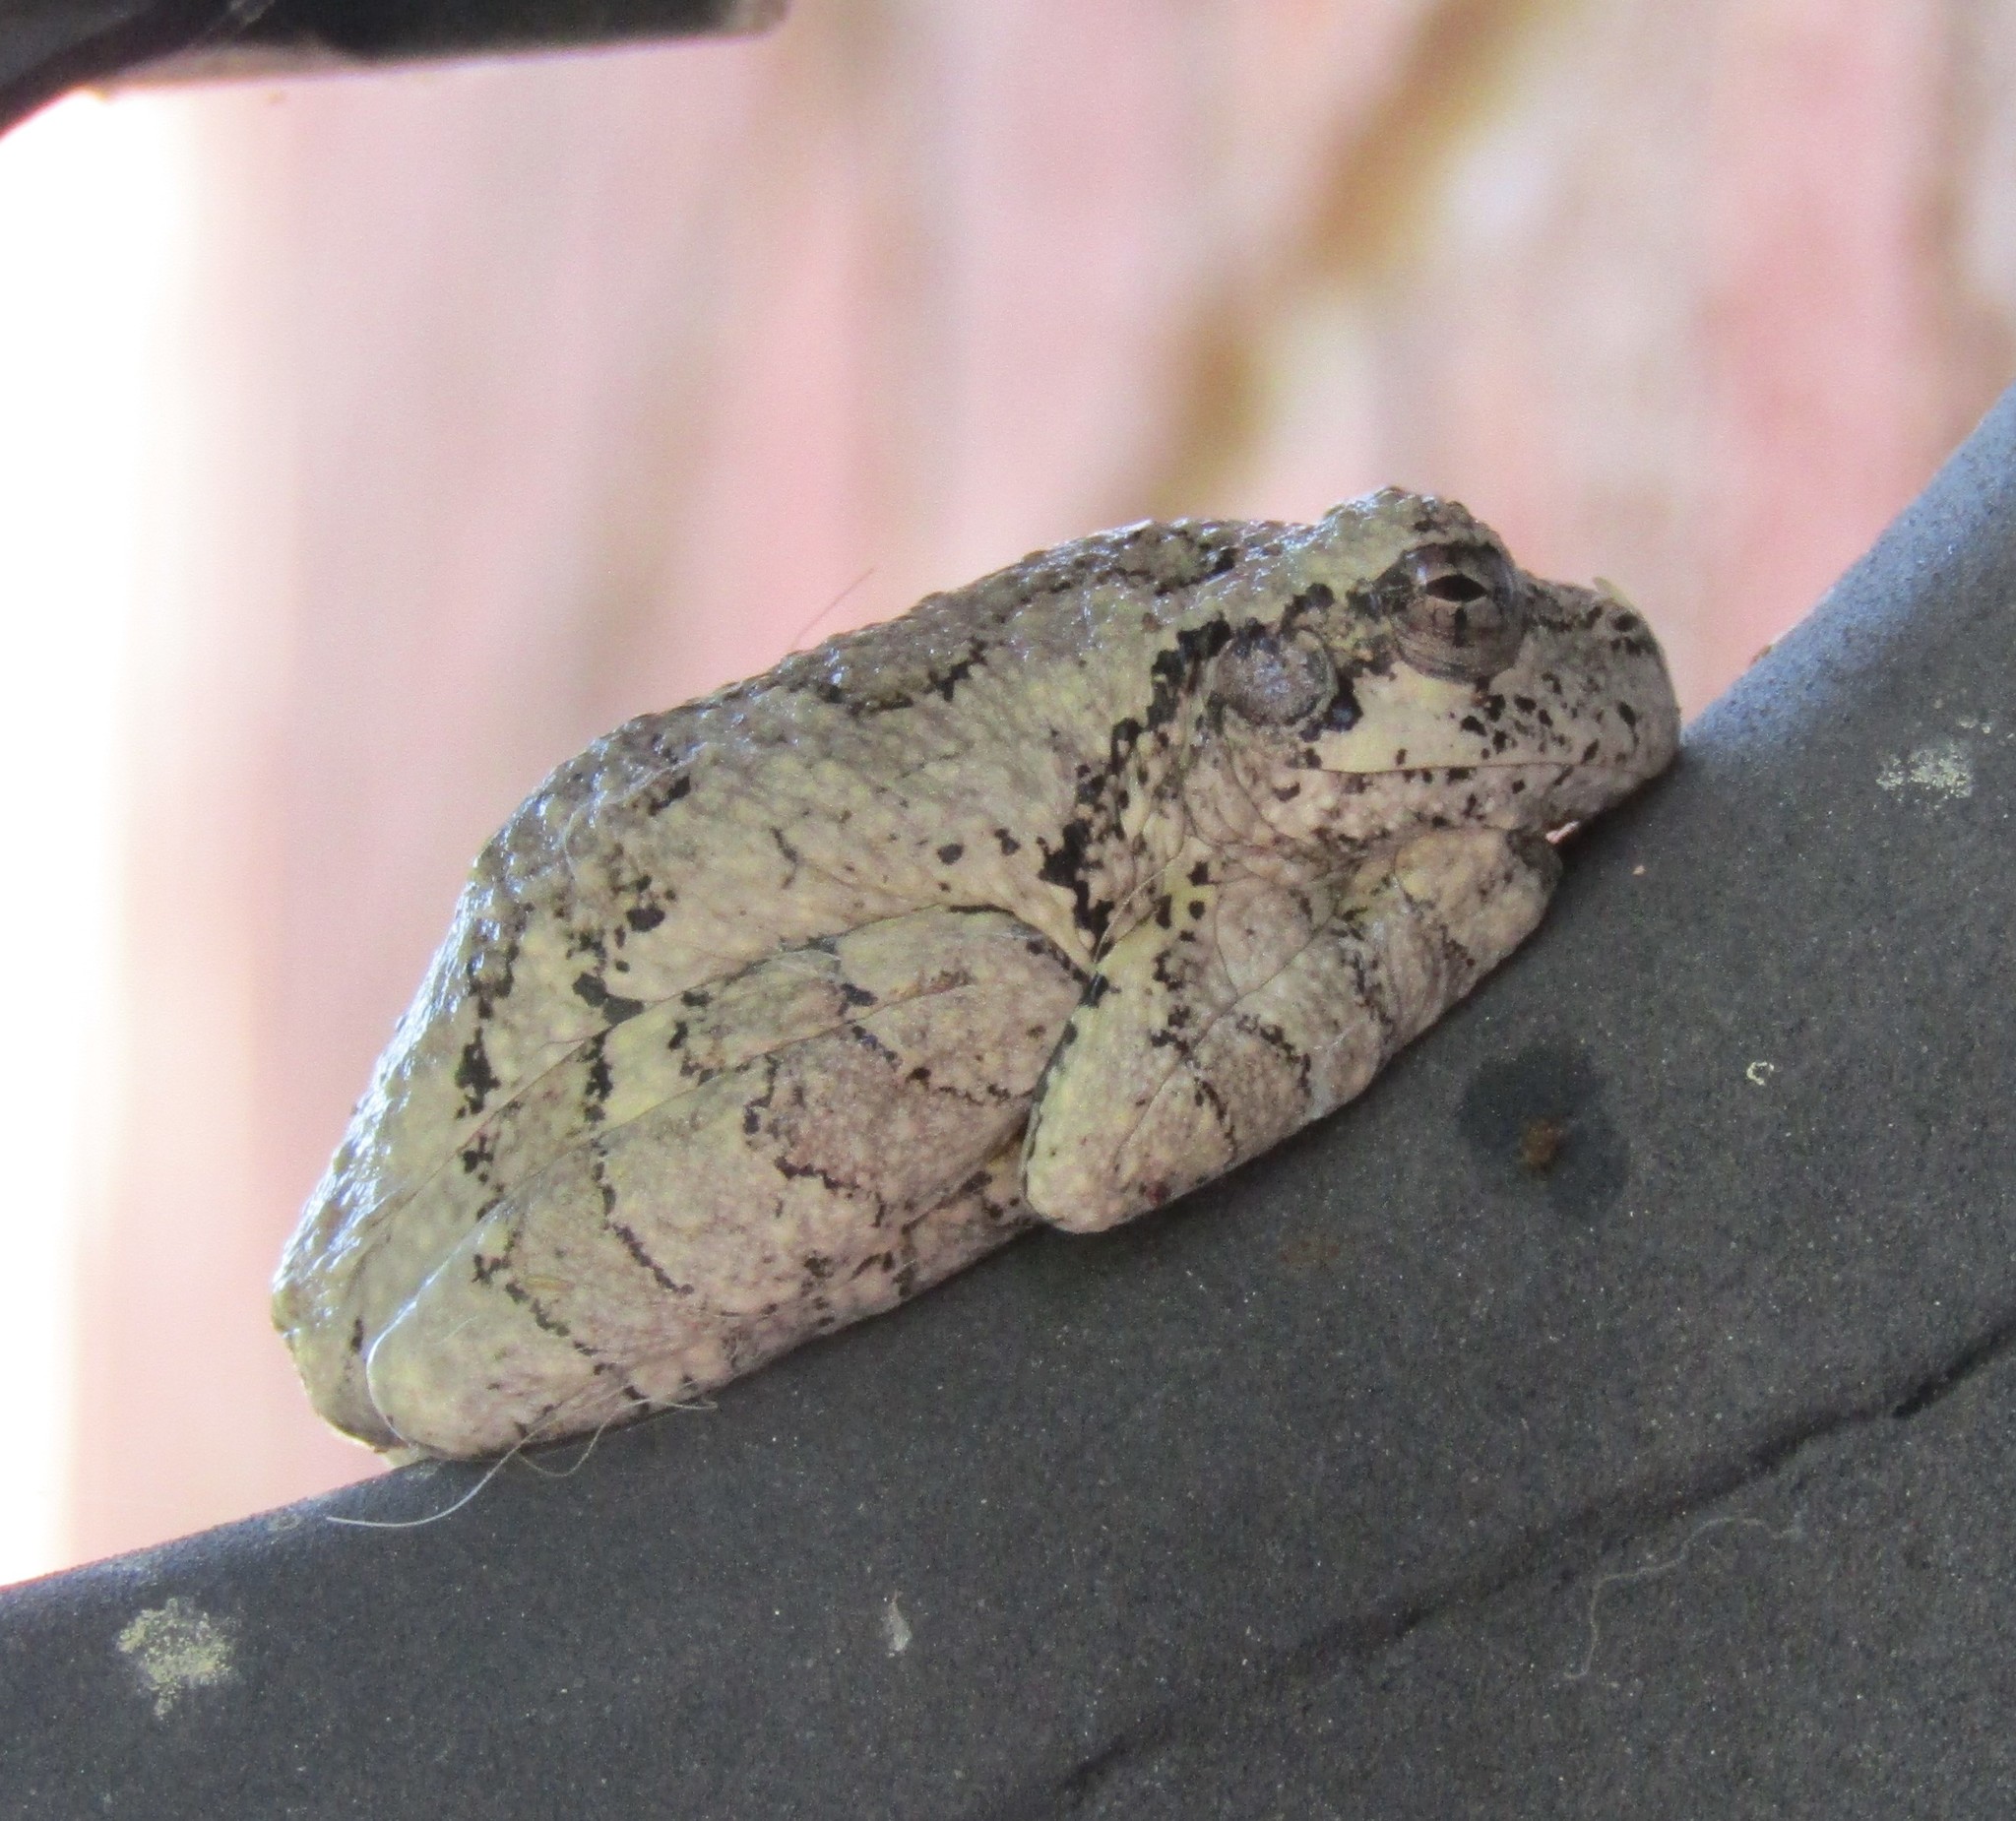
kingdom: Animalia
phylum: Chordata
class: Amphibia
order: Anura
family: Hylidae
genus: Dryophytes
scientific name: Dryophytes chrysoscelis
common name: Cope's gray treefrog
